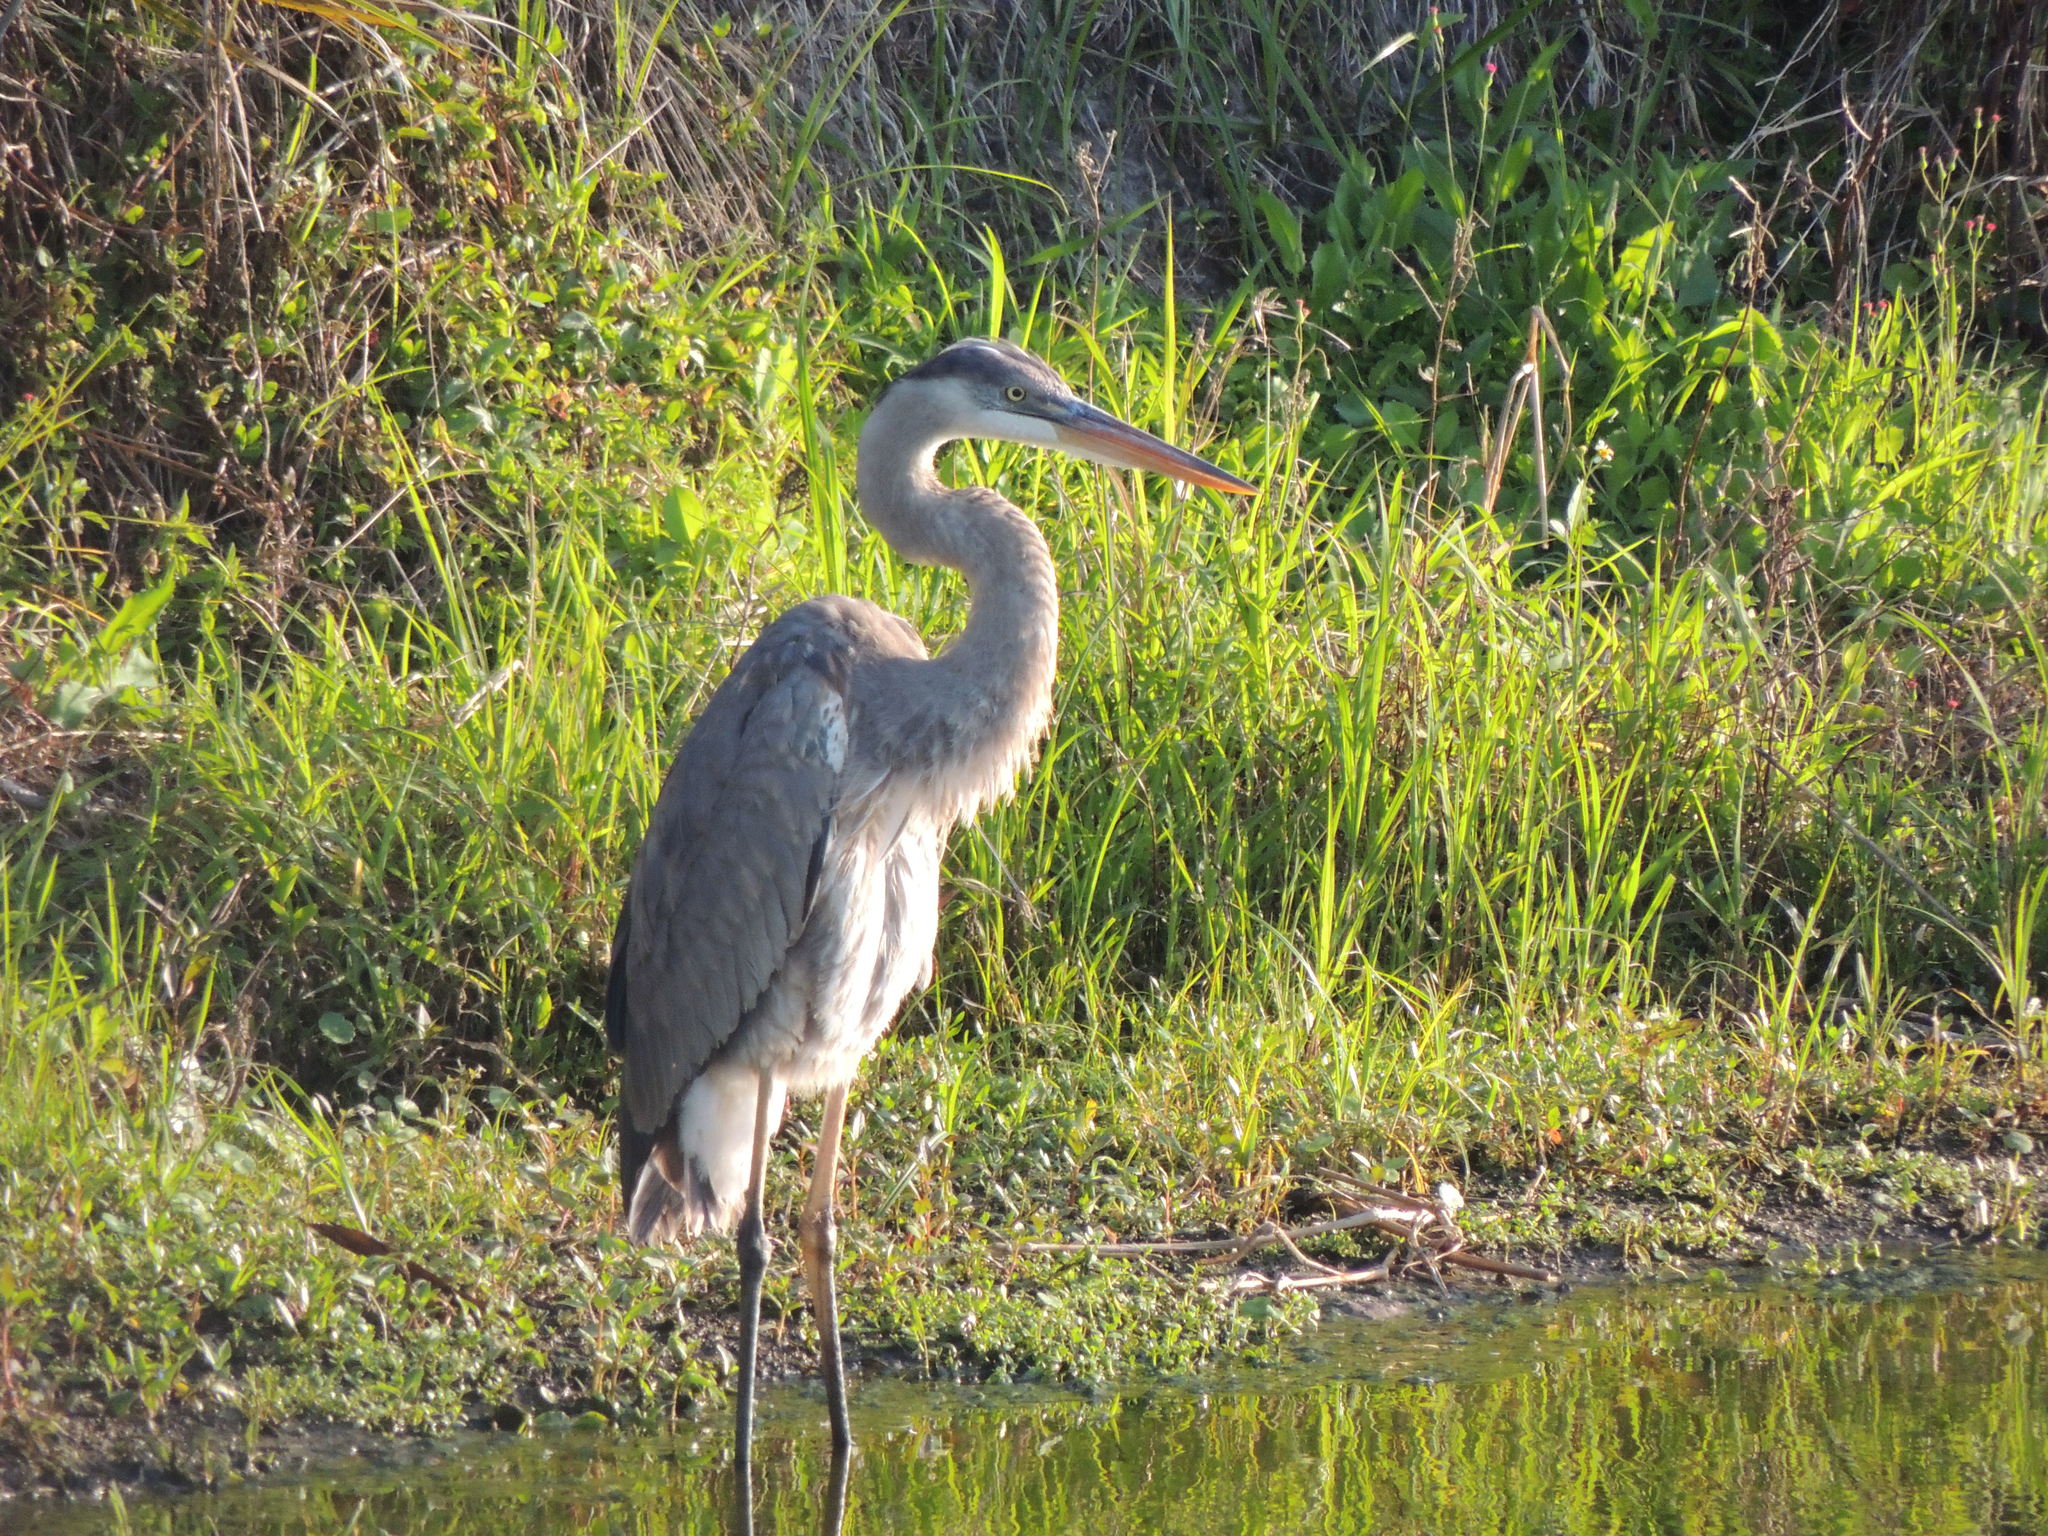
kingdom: Animalia
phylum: Chordata
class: Aves
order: Pelecaniformes
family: Ardeidae
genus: Ardea
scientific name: Ardea herodias
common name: Great blue heron
